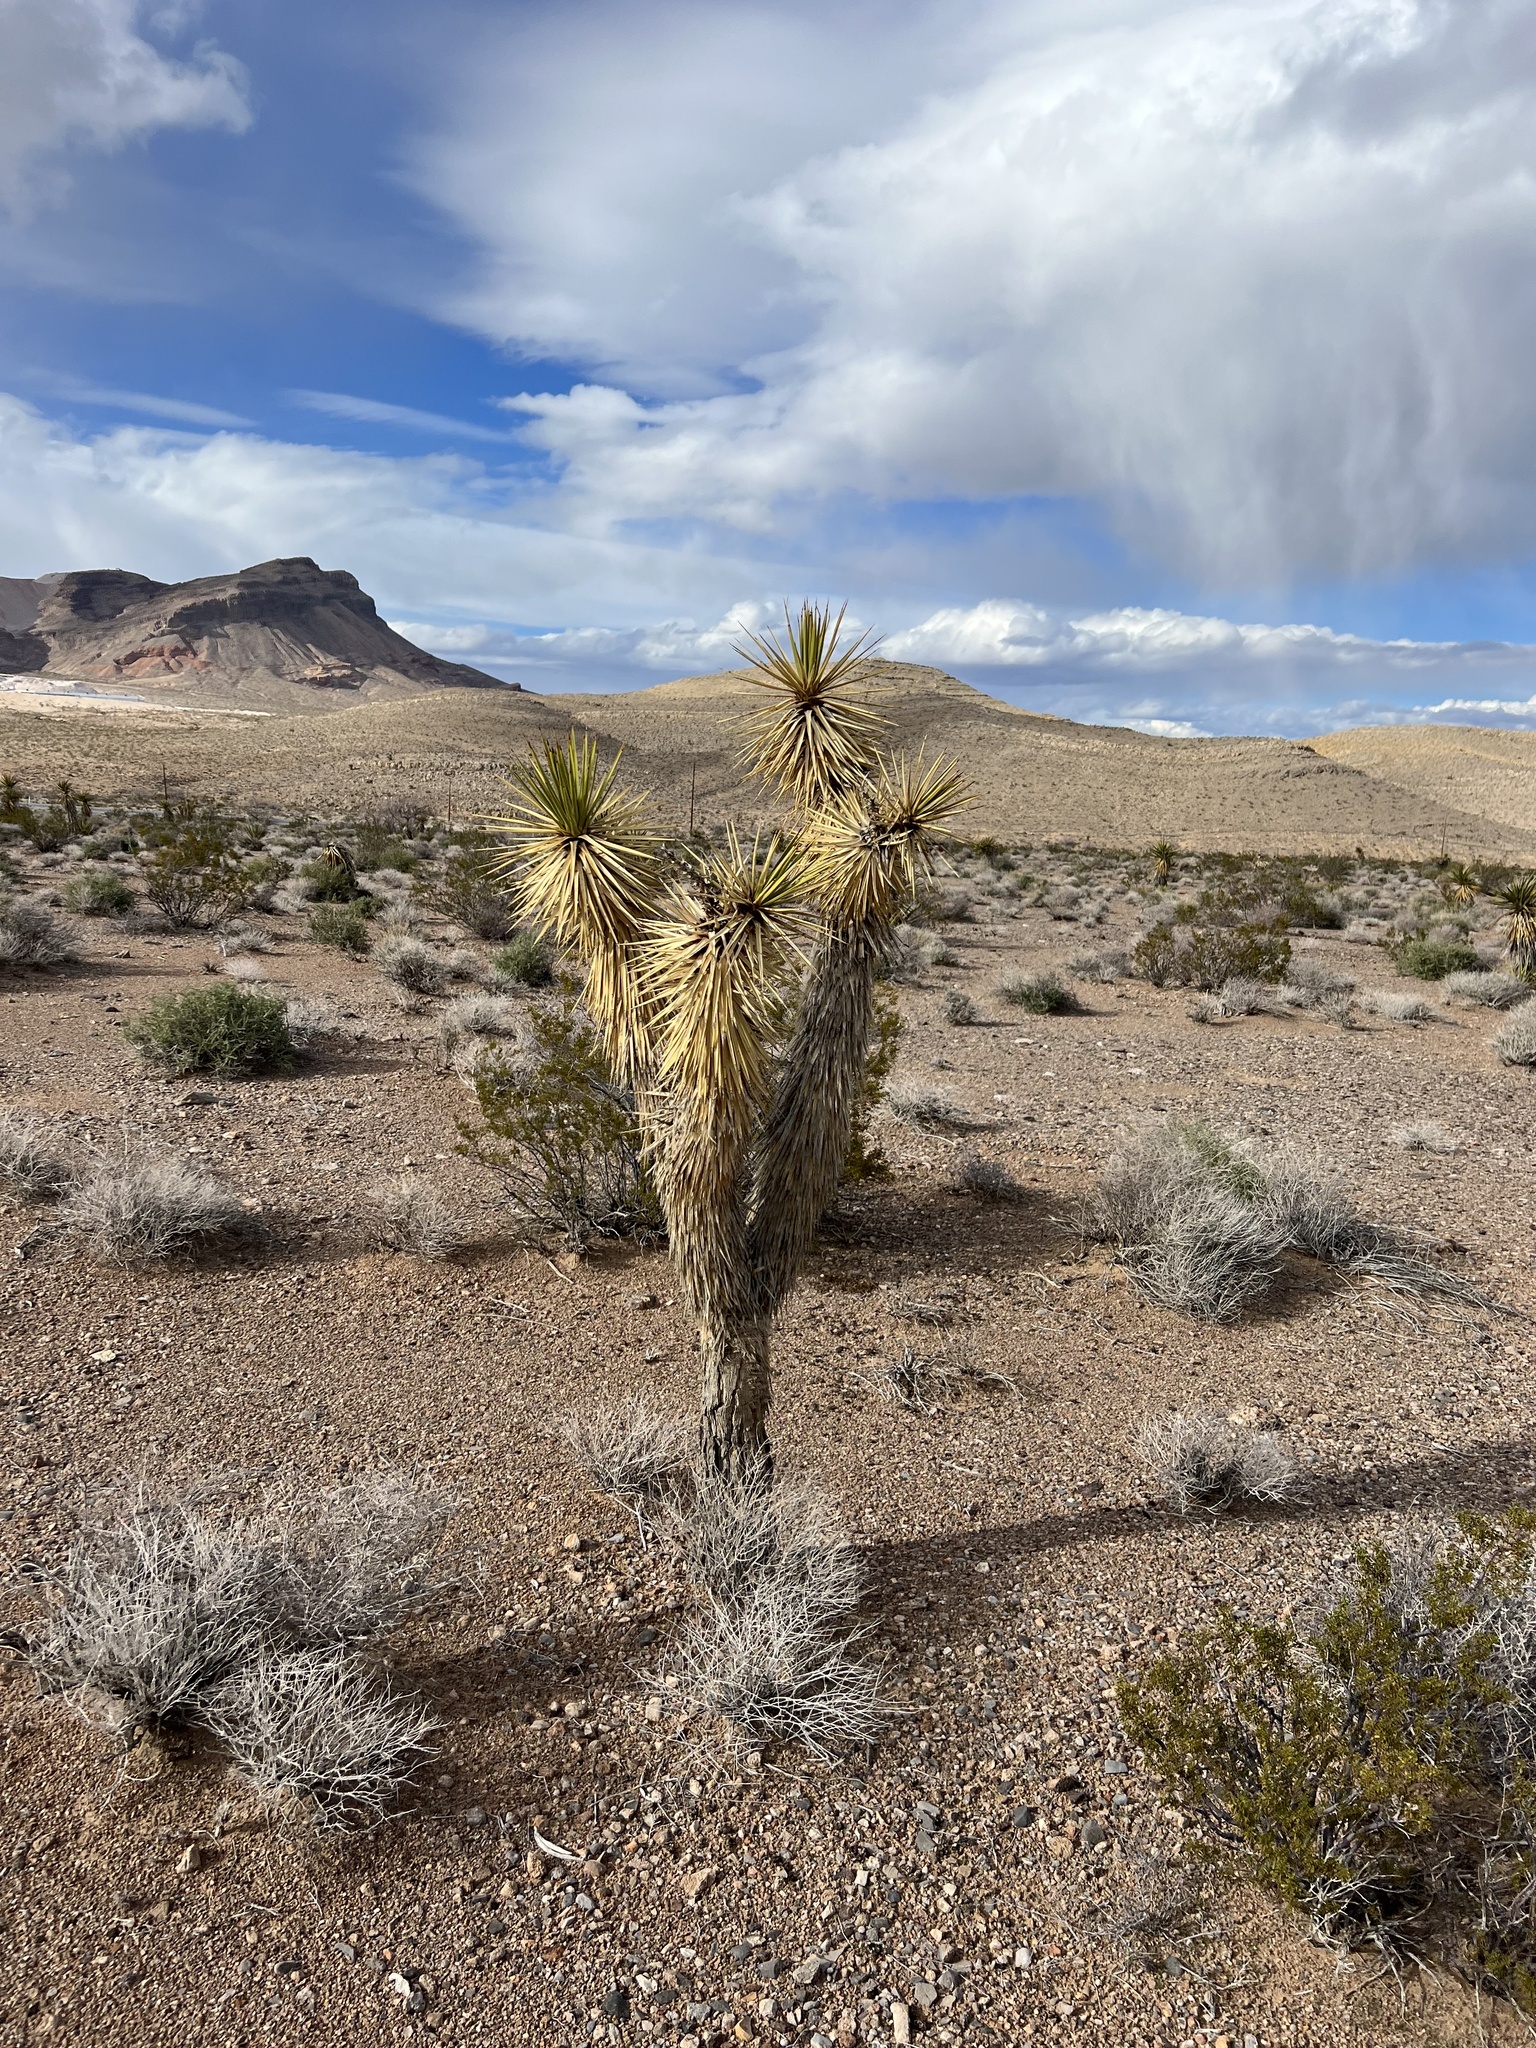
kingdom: Plantae
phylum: Tracheophyta
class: Liliopsida
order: Asparagales
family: Asparagaceae
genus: Yucca
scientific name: Yucca brevifolia
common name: Joshua tree
